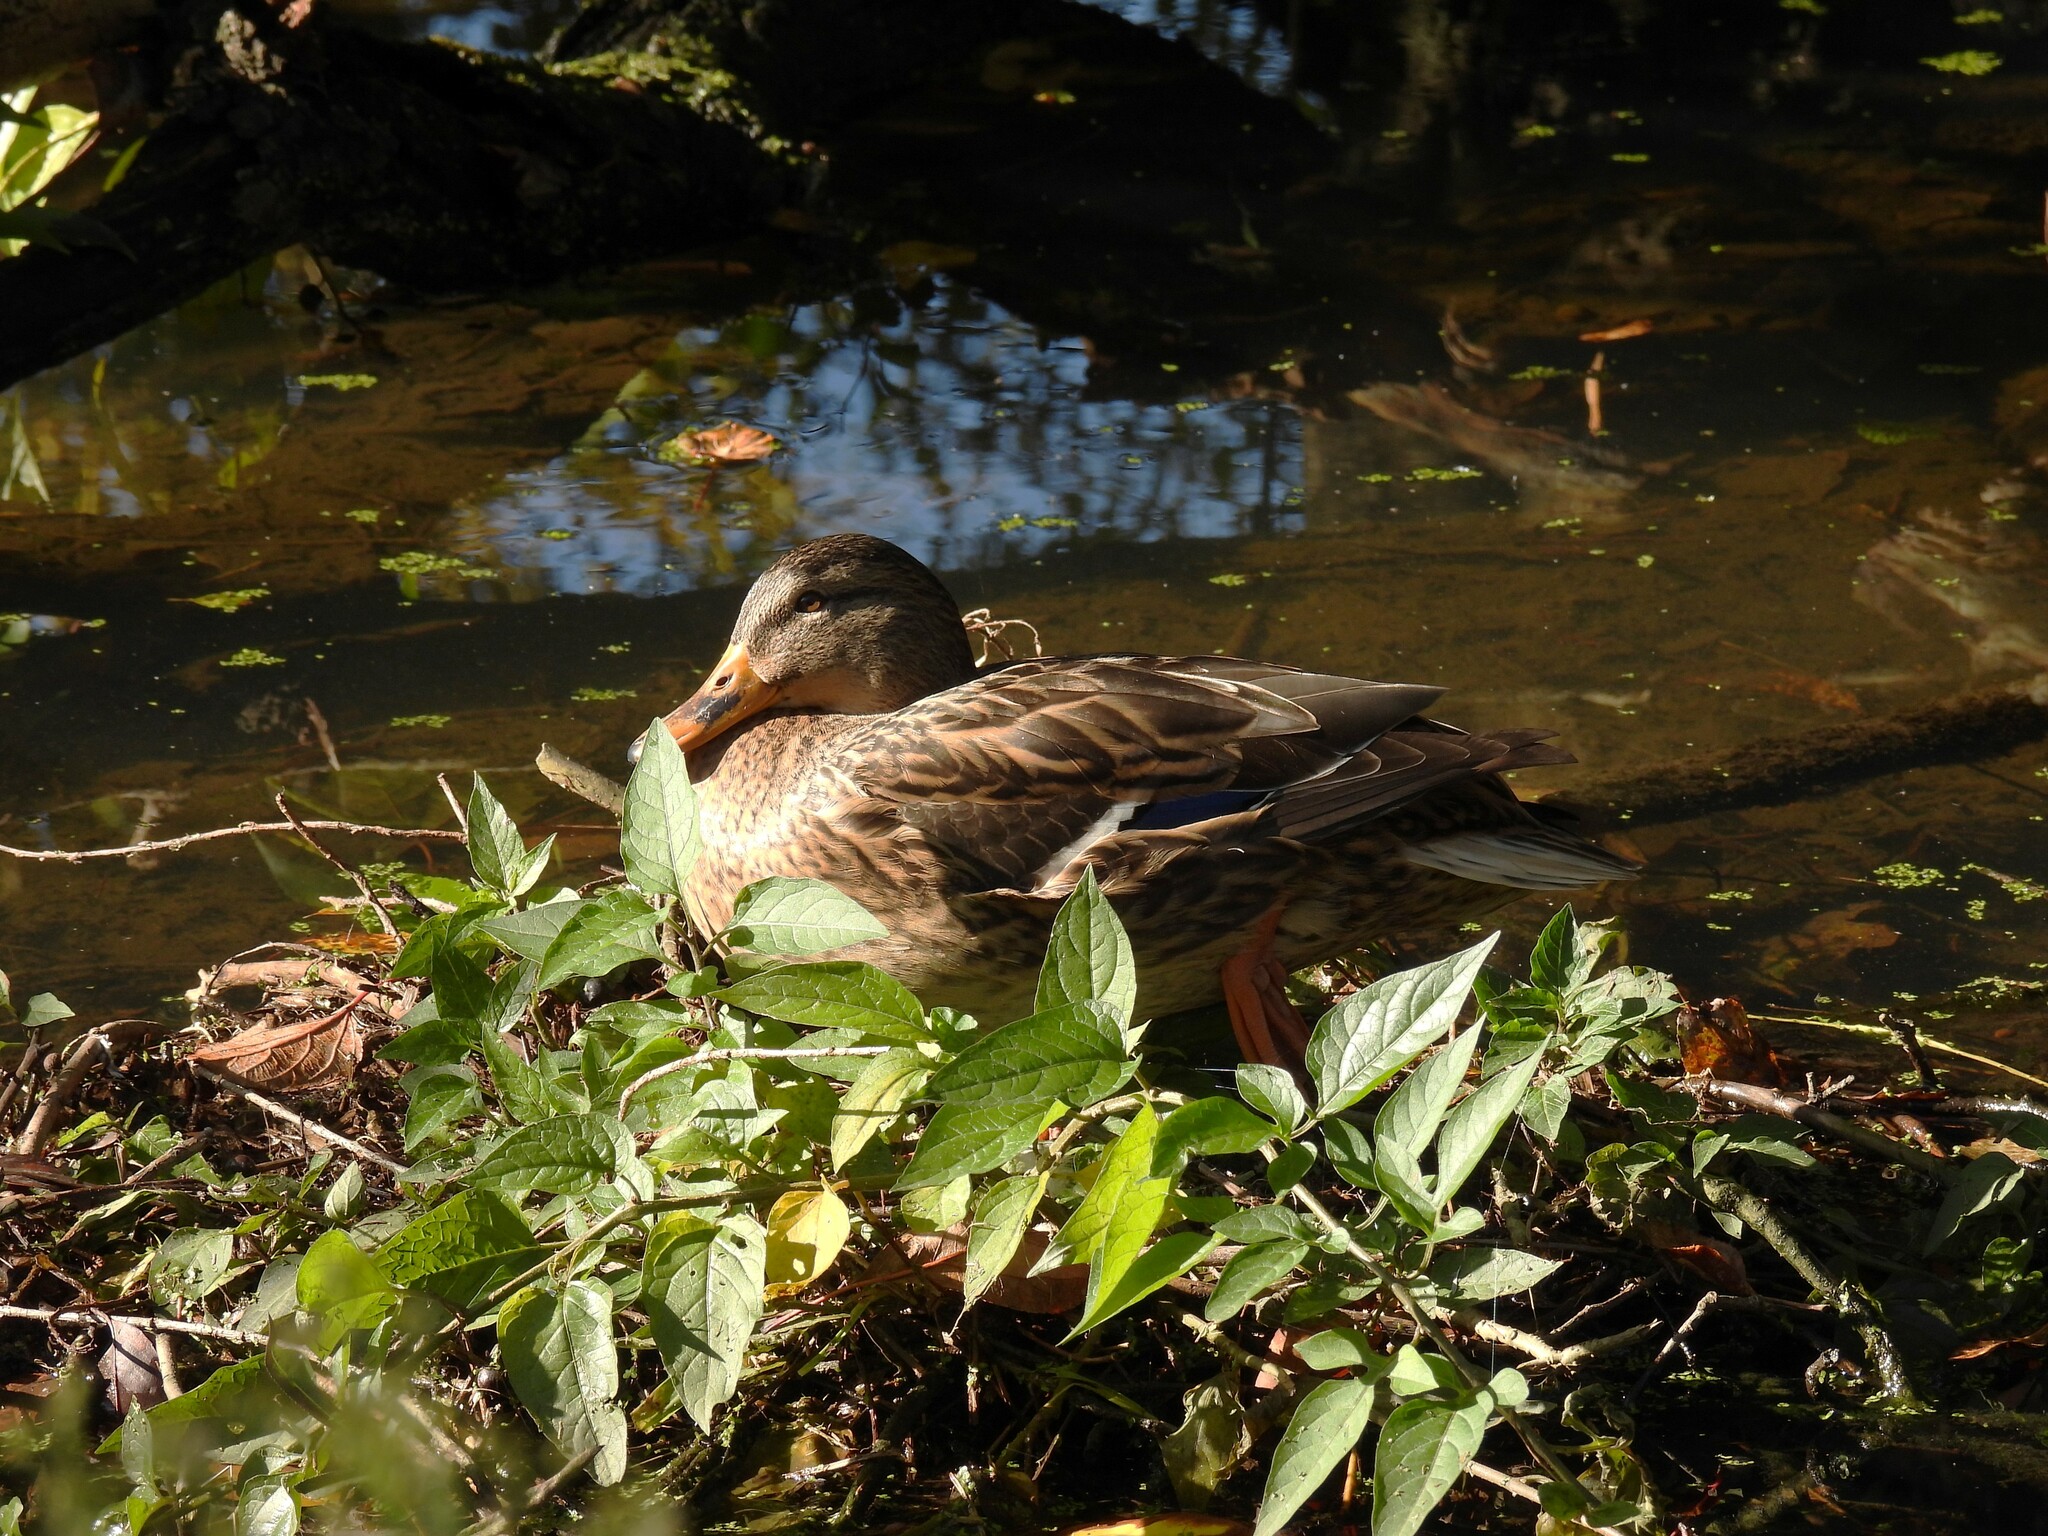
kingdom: Animalia
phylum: Chordata
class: Aves
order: Anseriformes
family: Anatidae
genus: Anas
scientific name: Anas platyrhynchos
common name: Mallard
